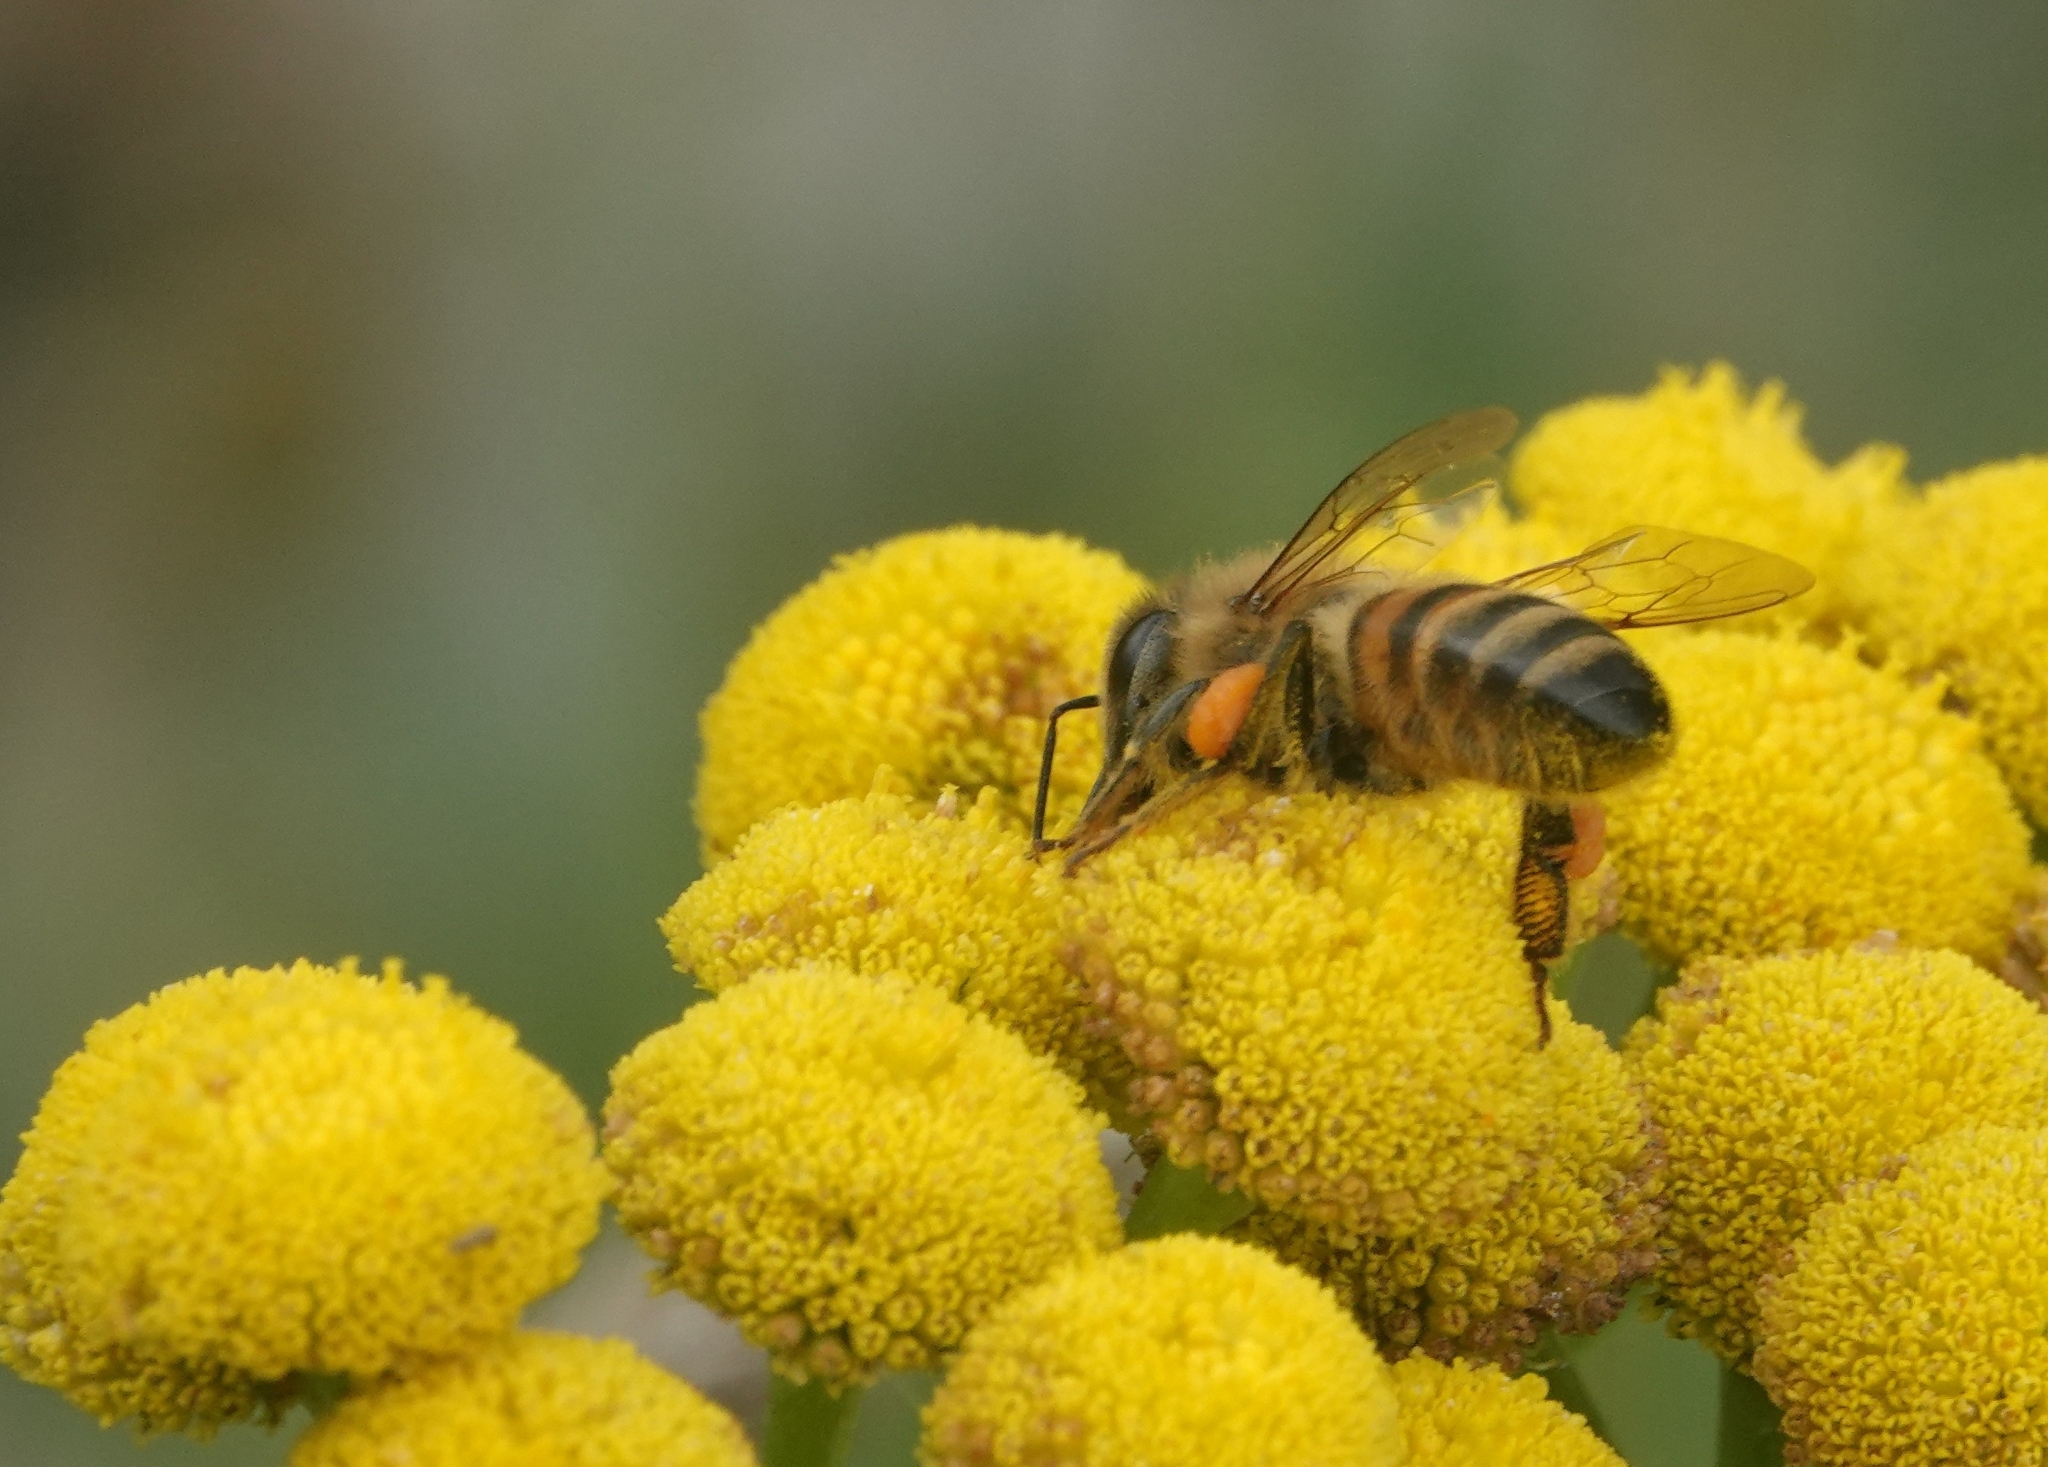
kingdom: Animalia
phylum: Arthropoda
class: Insecta
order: Hymenoptera
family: Apidae
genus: Apis
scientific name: Apis mellifera
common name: Honey bee
